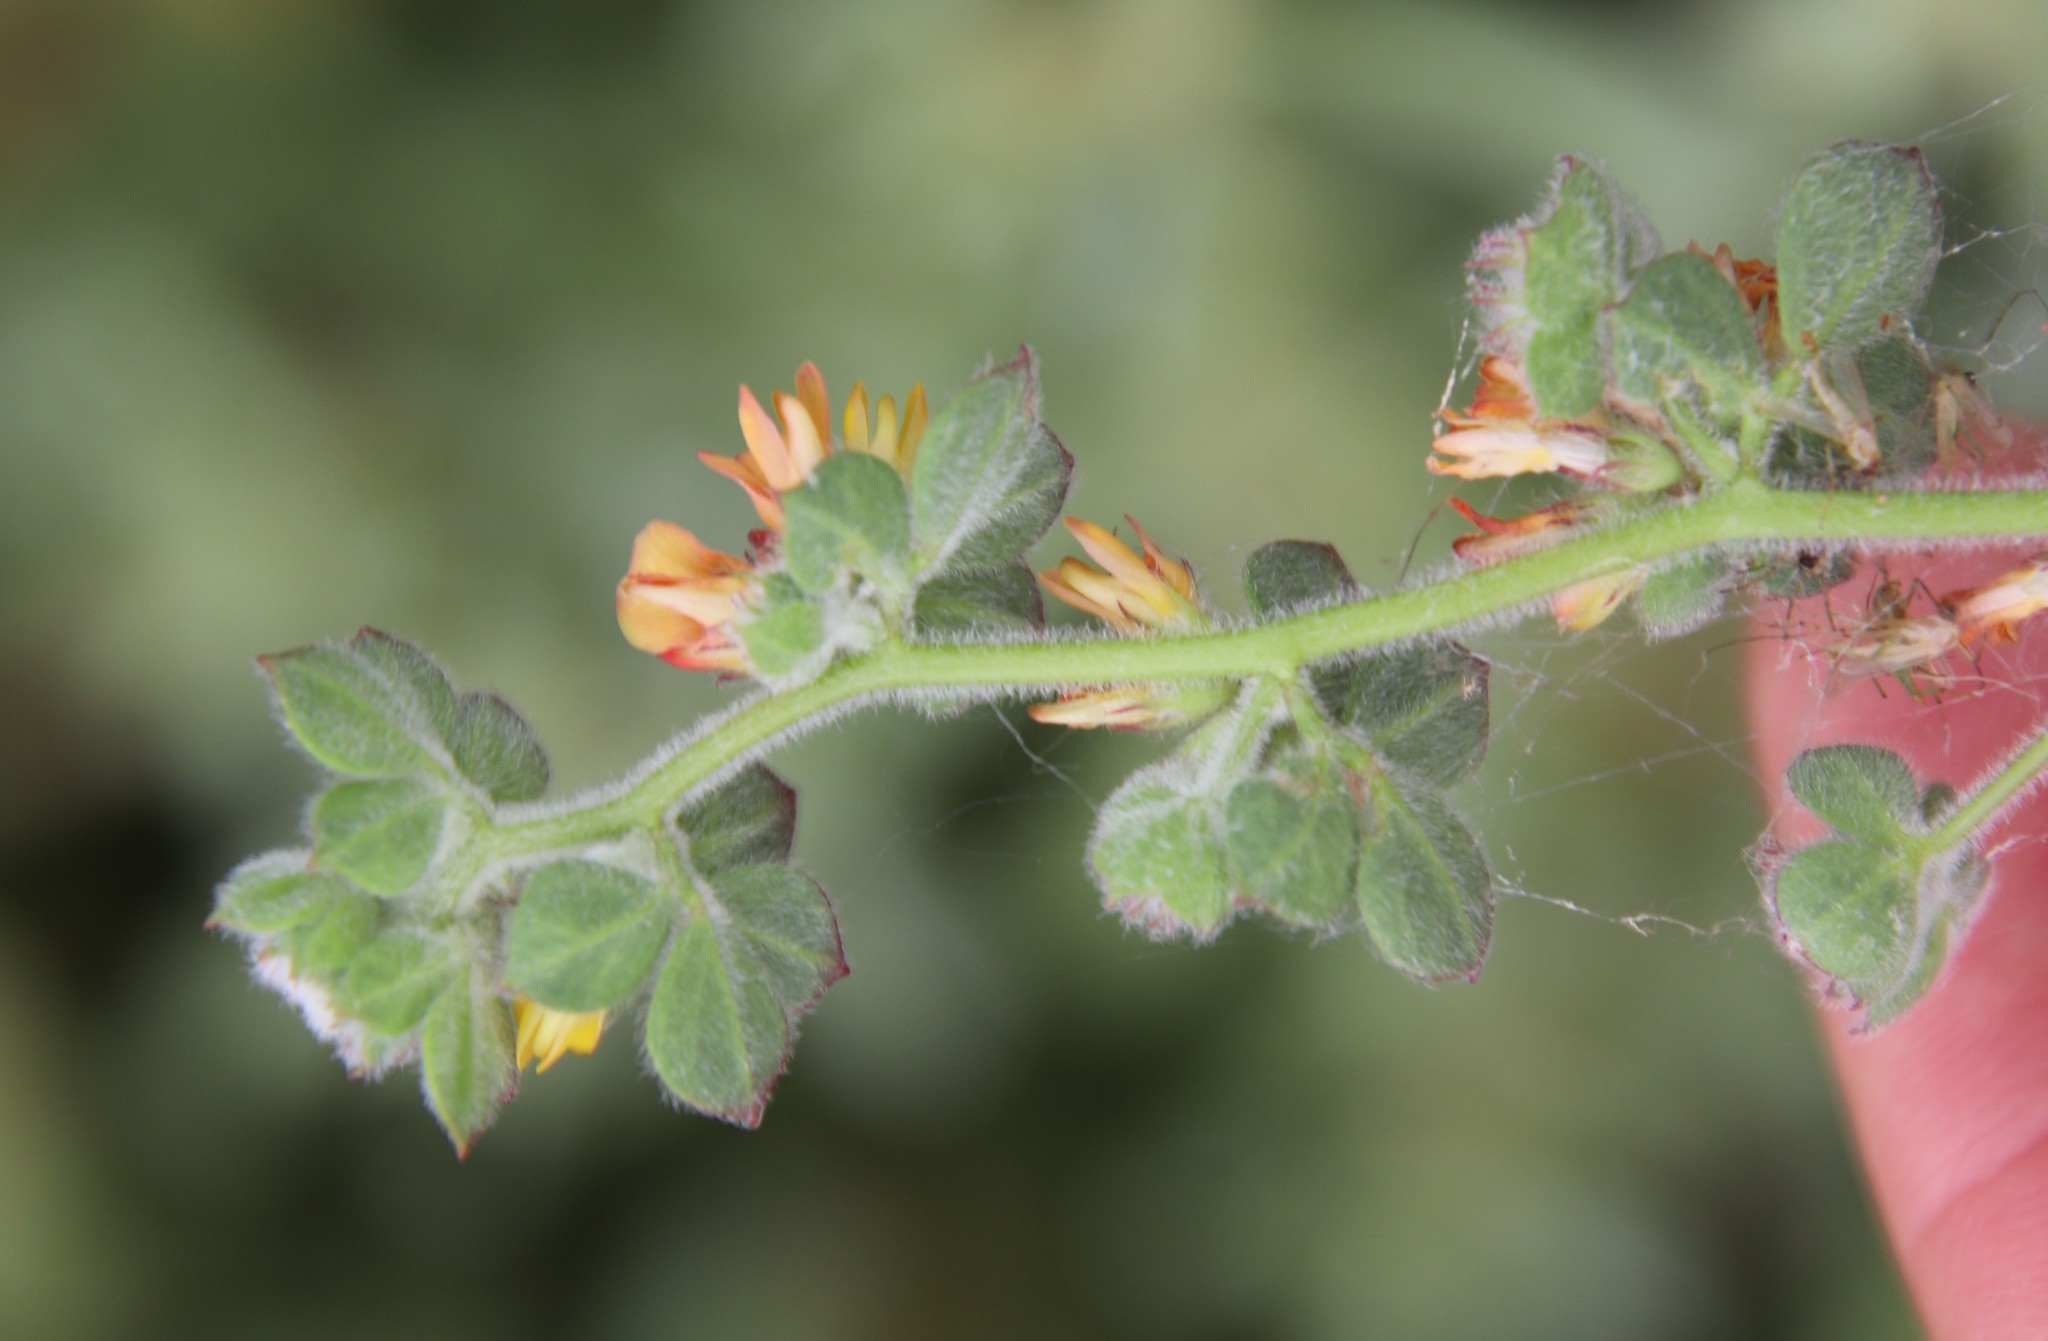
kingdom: Plantae
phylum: Tracheophyta
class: Magnoliopsida
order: Fabales
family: Fabaceae
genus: Acmispon
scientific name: Acmispon tomentosus
